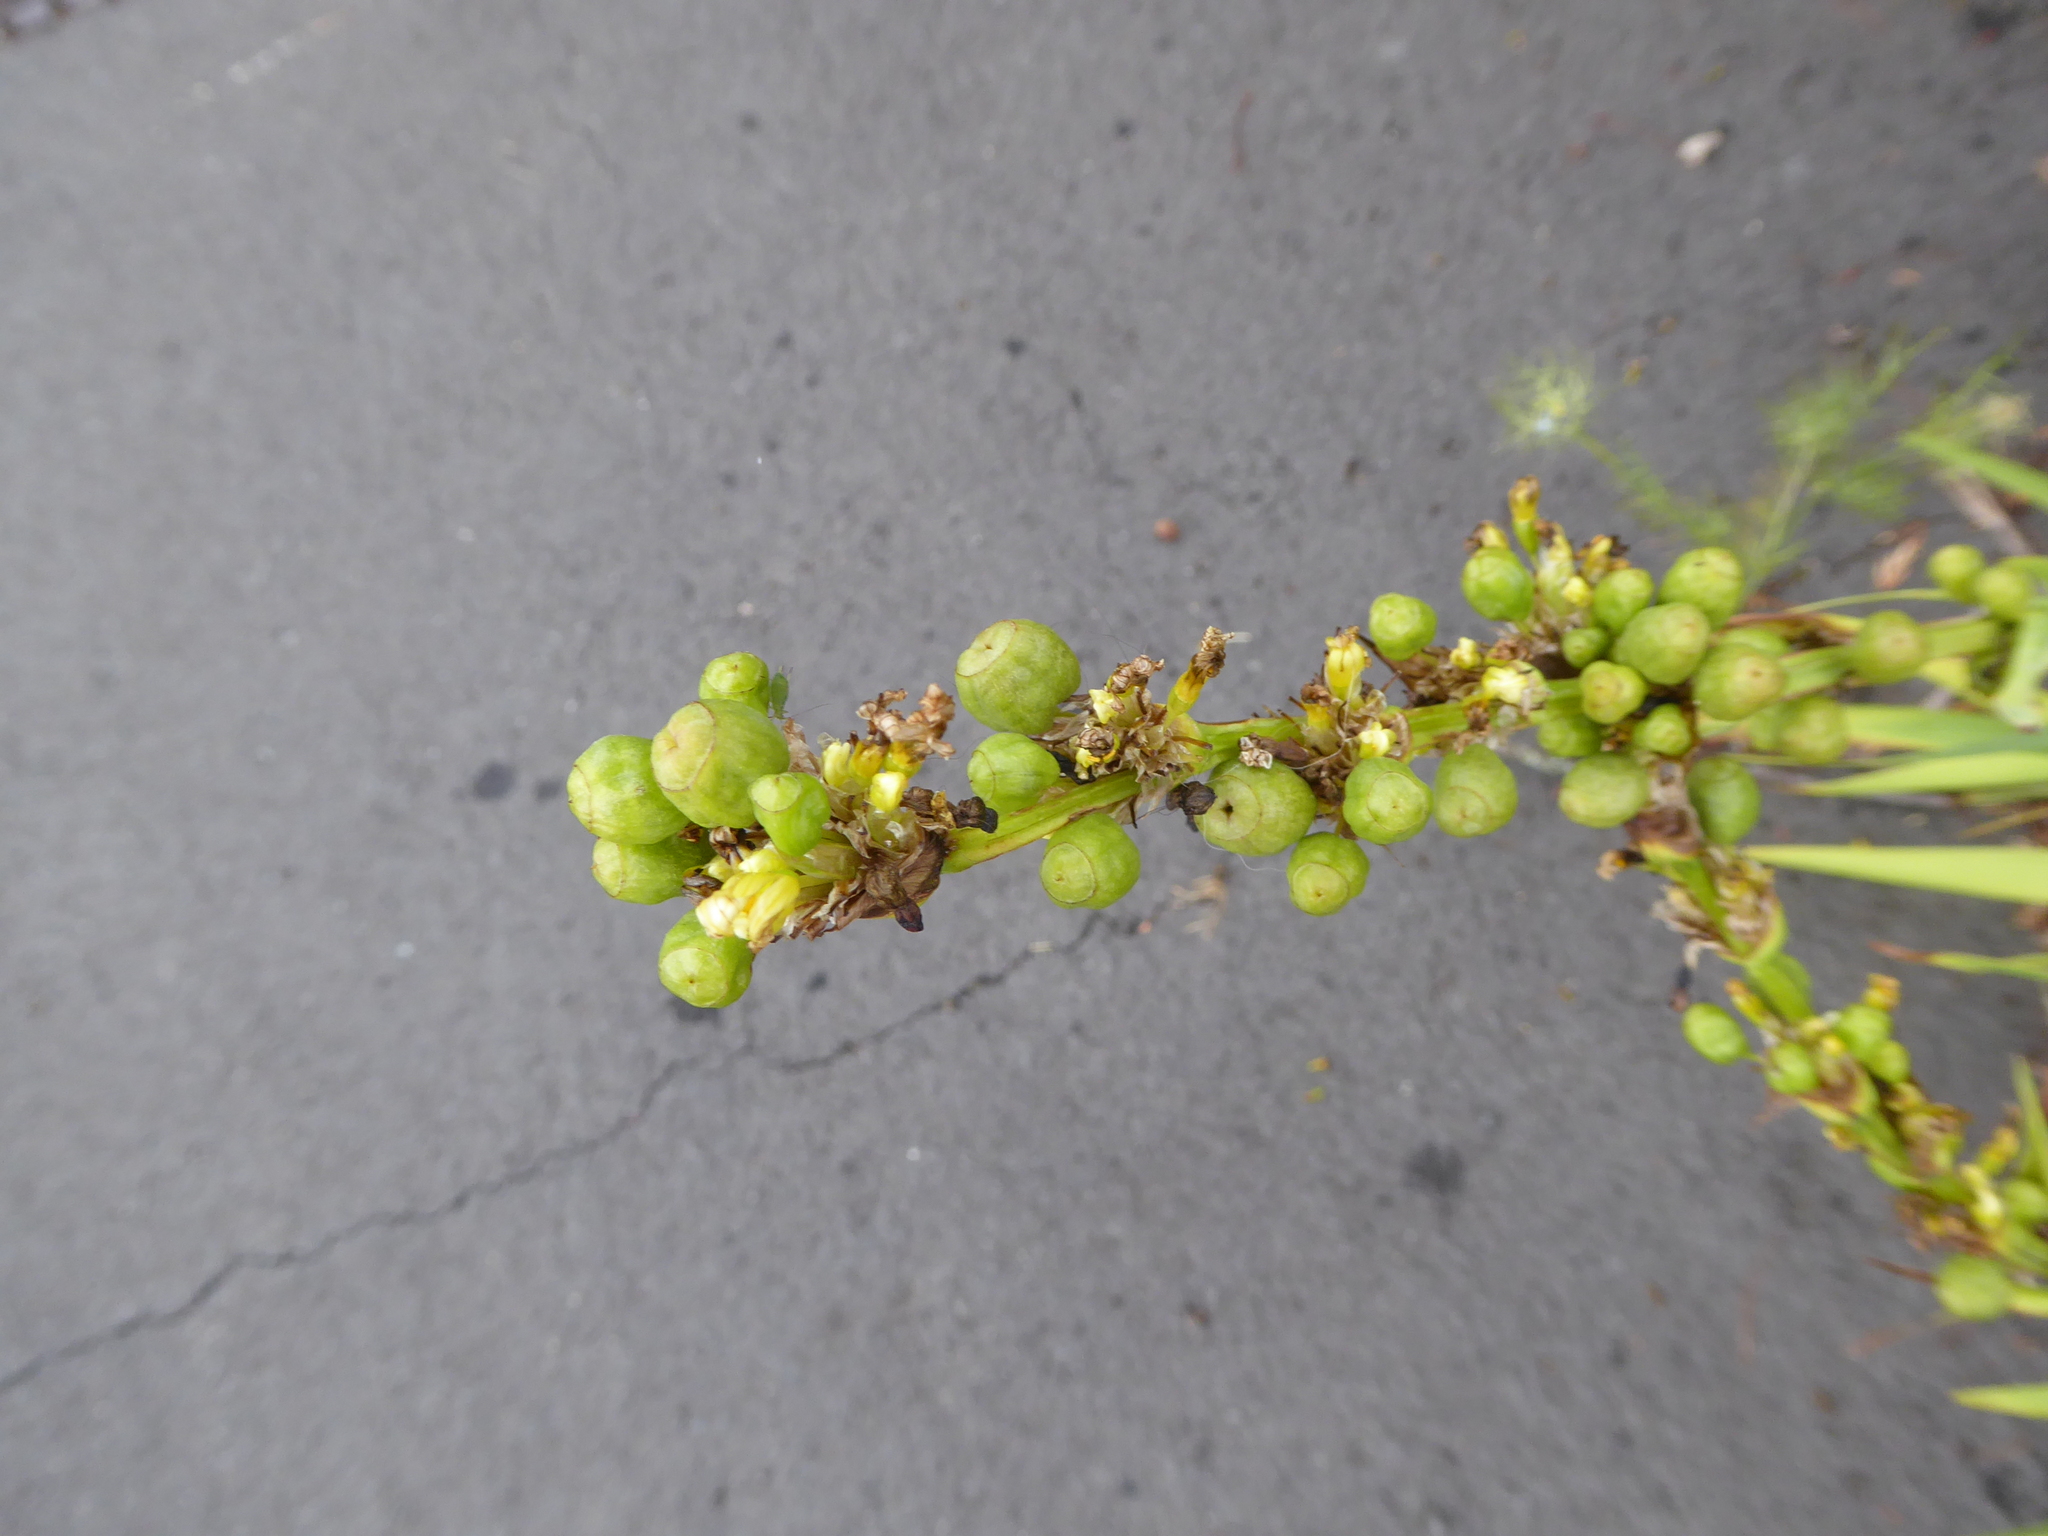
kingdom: Plantae
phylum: Tracheophyta
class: Liliopsida
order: Asparagales
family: Iridaceae
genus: Sisyrinchium
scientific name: Sisyrinchium striatum
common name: Pale yellow-eyed-grass
